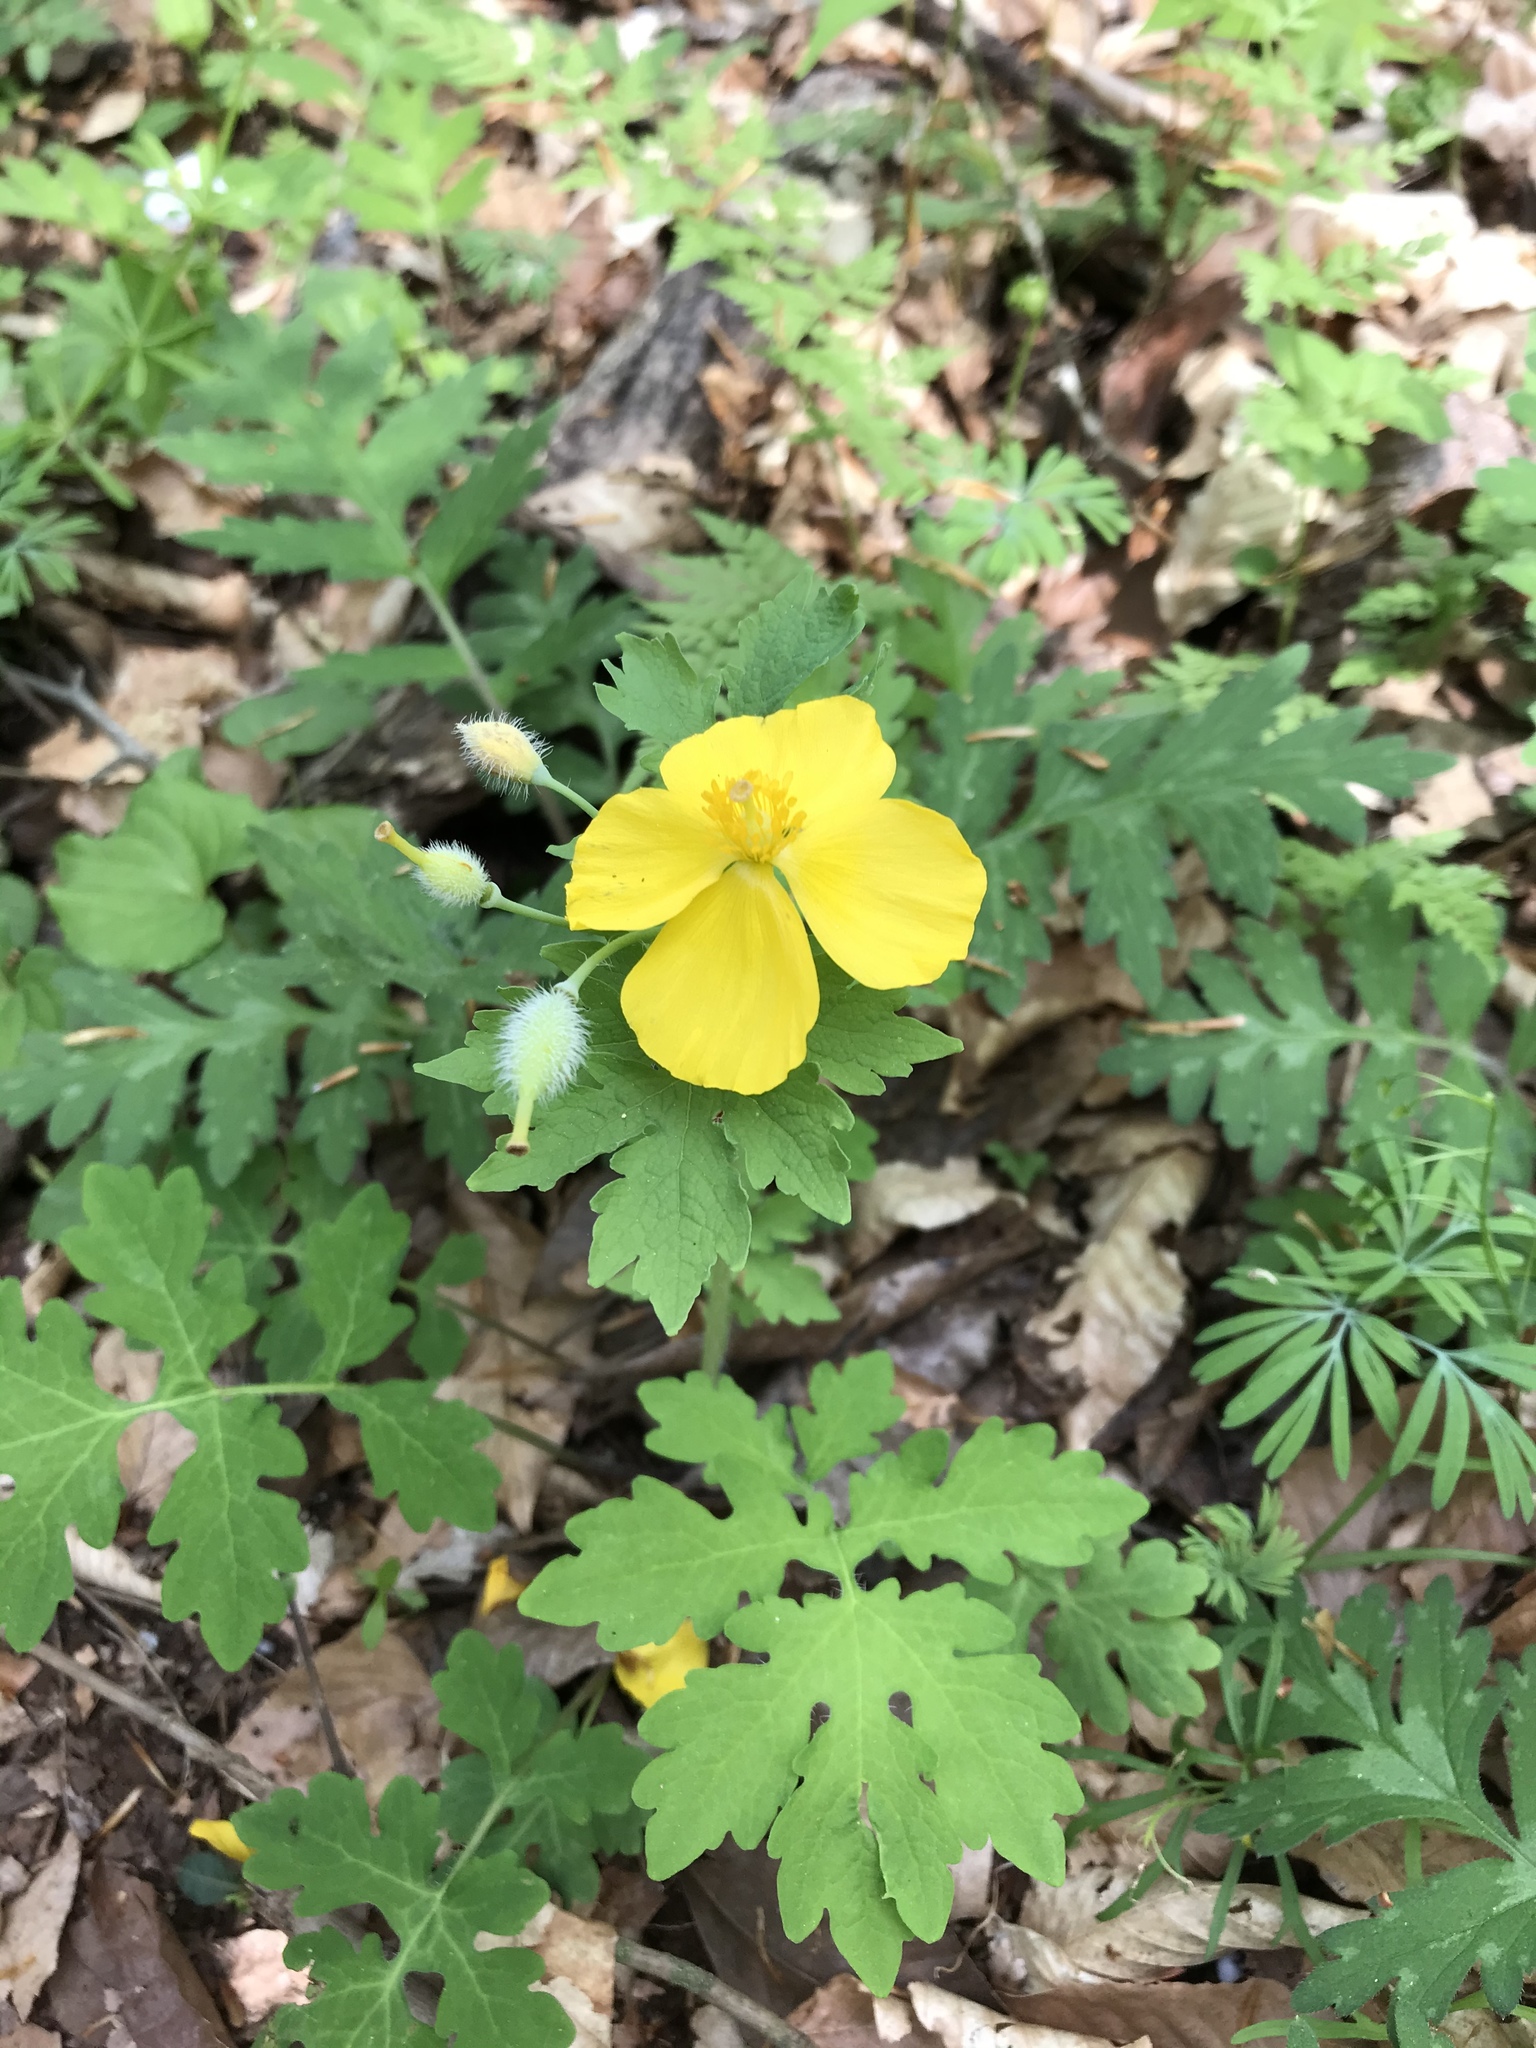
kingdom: Plantae
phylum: Tracheophyta
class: Magnoliopsida
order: Ranunculales
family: Papaveraceae
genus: Stylophorum
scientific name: Stylophorum diphyllum
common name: Celandine poppy
